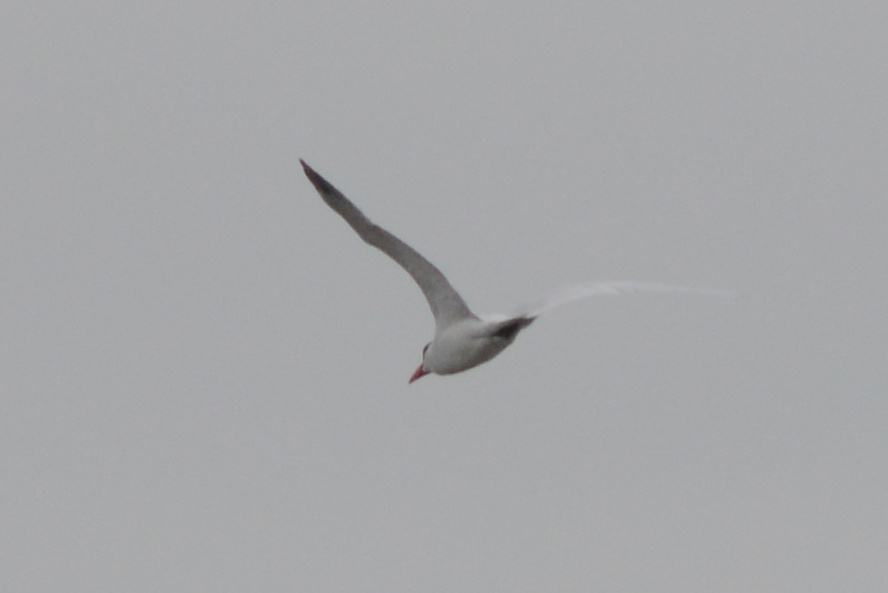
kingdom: Animalia
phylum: Chordata
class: Aves
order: Charadriiformes
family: Laridae
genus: Hydroprogne
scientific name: Hydroprogne caspia
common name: Caspian tern
